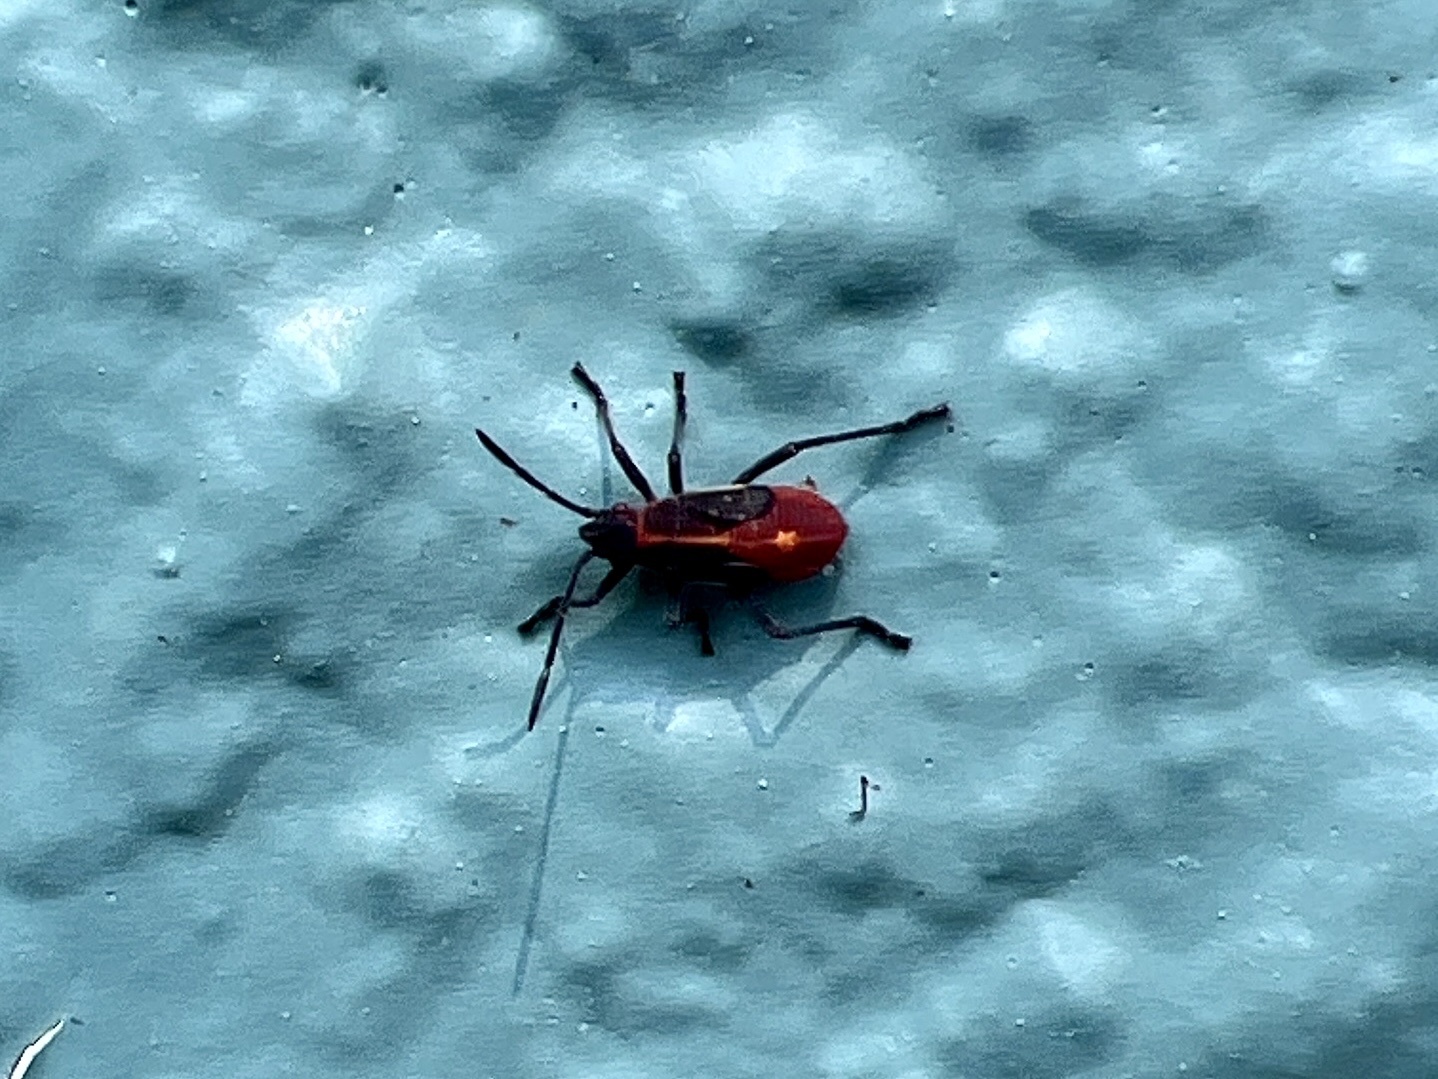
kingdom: Animalia
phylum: Arthropoda
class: Insecta
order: Hemiptera
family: Rhopalidae
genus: Boisea
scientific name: Boisea trivittata
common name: Boxelder bug
